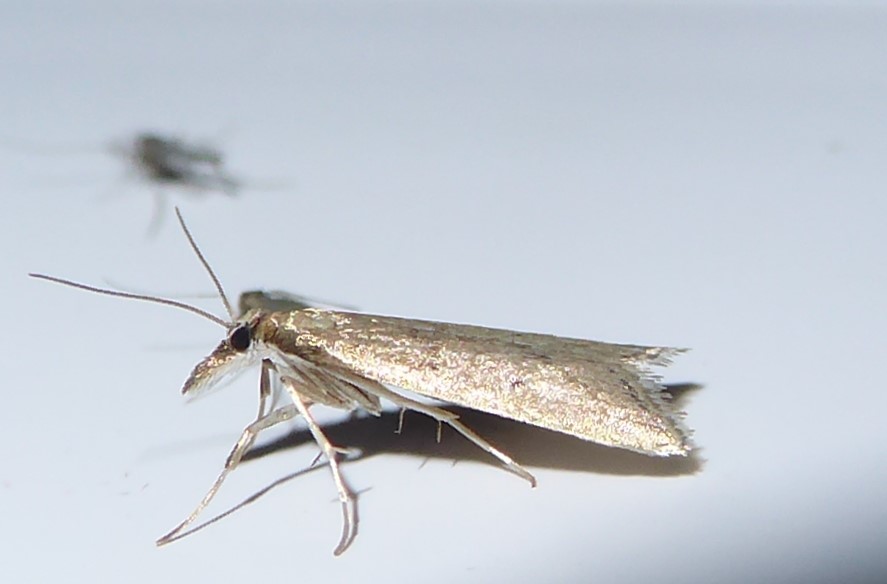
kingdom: Animalia
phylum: Arthropoda
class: Insecta
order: Lepidoptera
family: Crambidae
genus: Antiscopa
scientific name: Antiscopa elaphra
